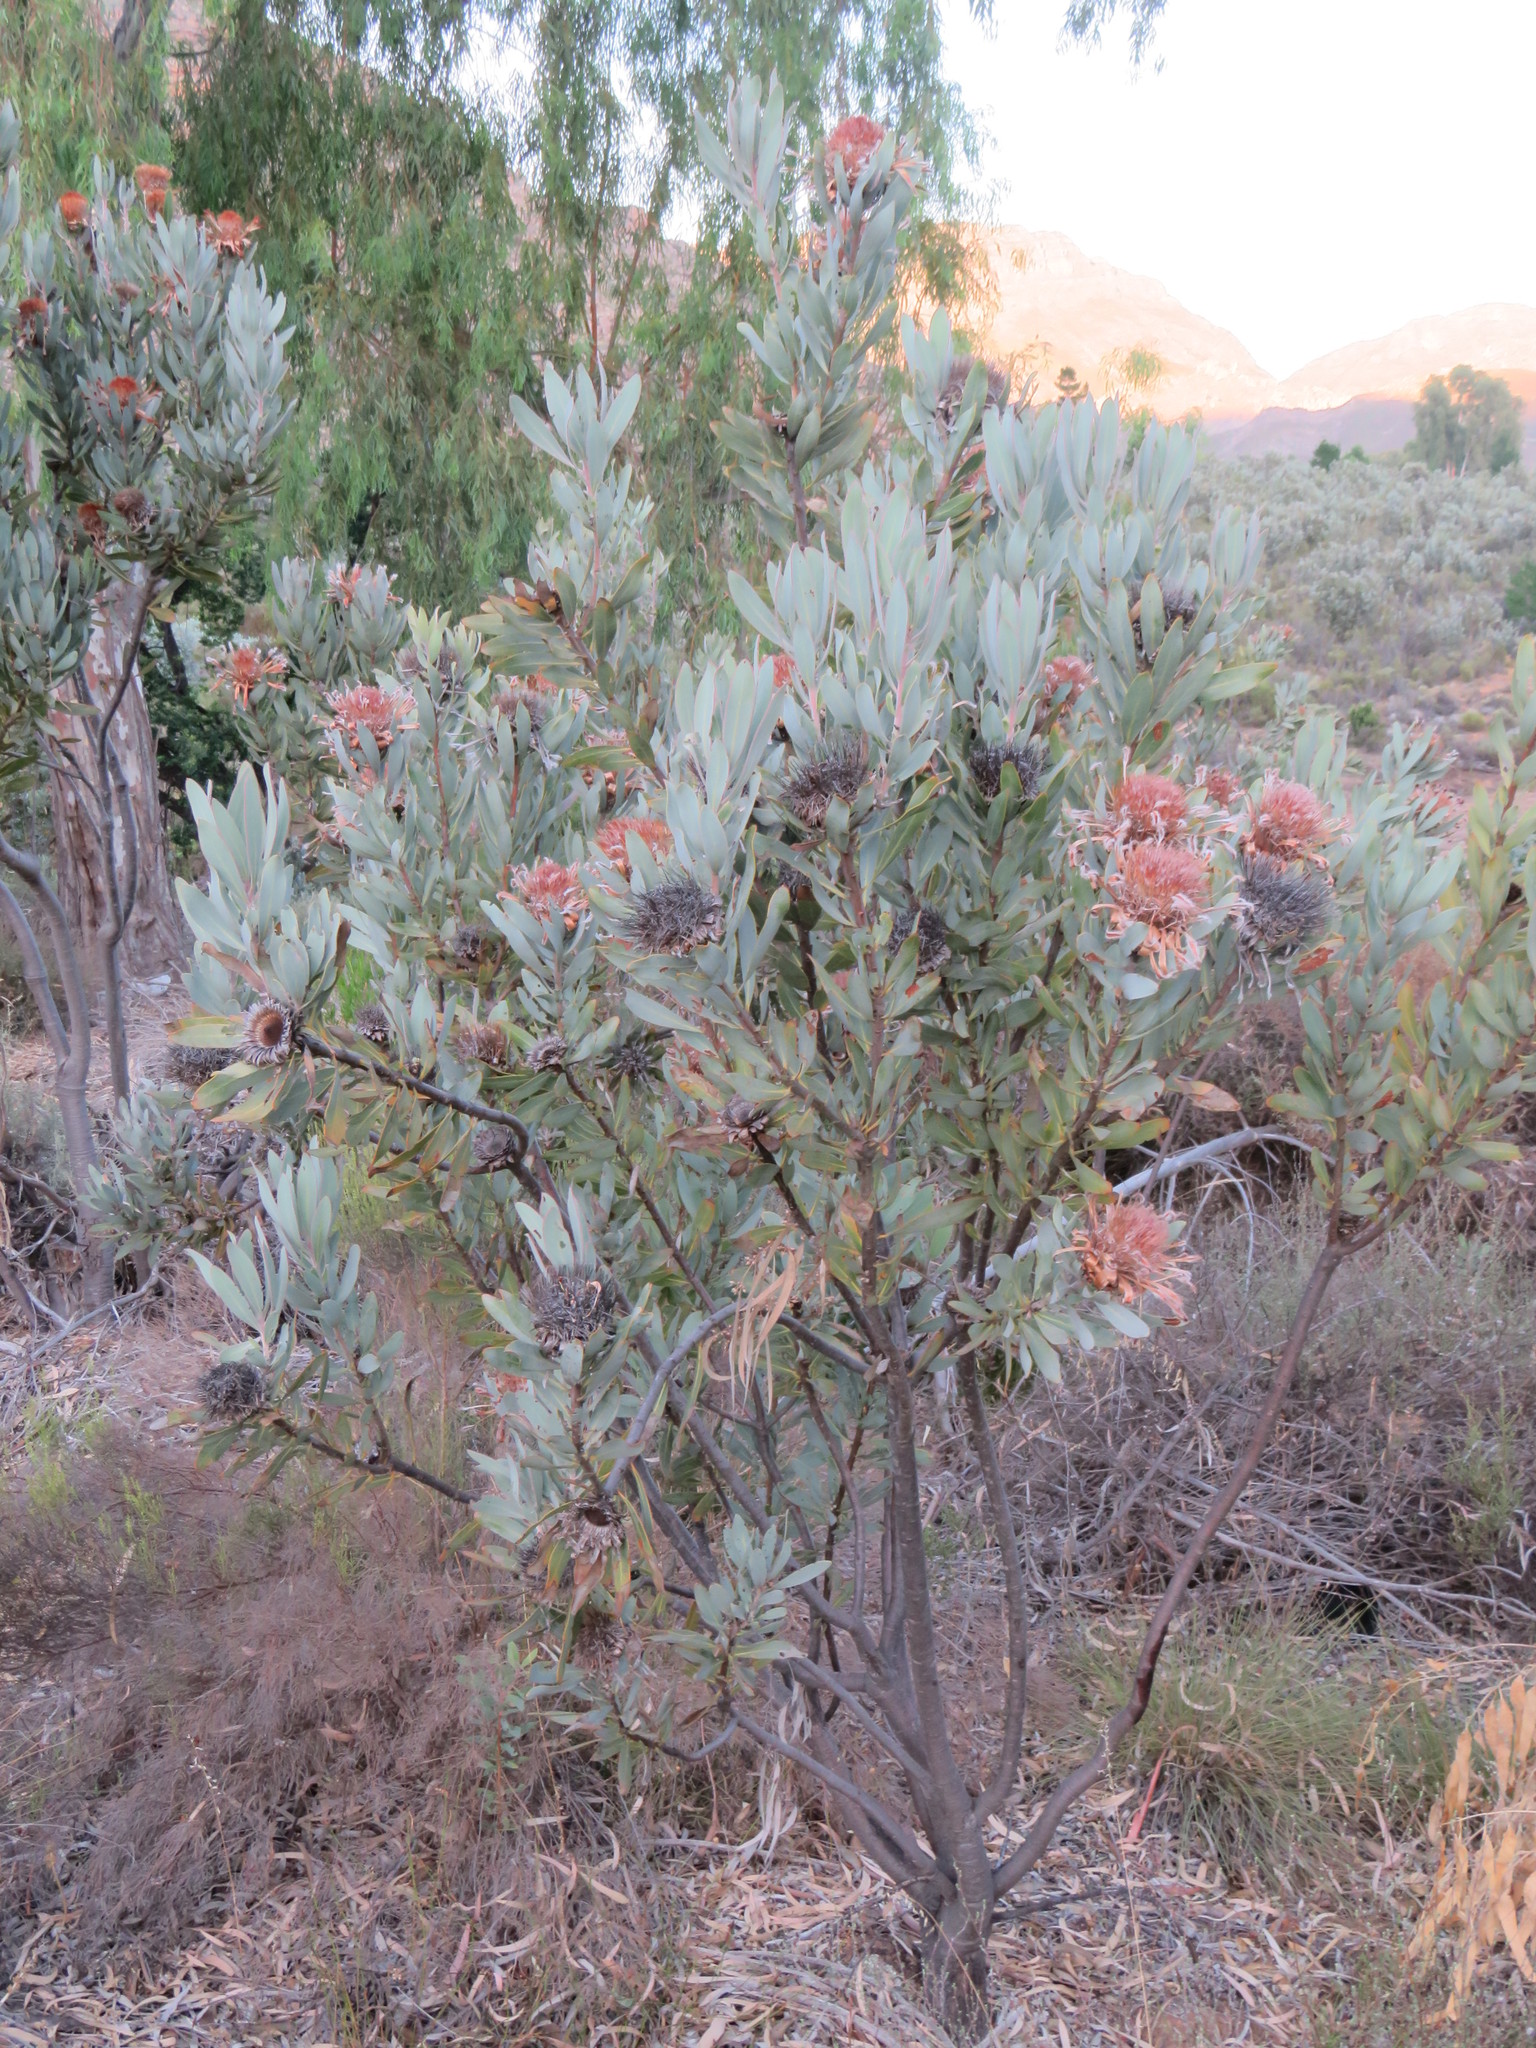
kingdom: Plantae
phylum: Tracheophyta
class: Magnoliopsida
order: Proteales
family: Proteaceae
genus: Protea
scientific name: Protea laurifolia
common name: Grey-leaf sugarbsh
